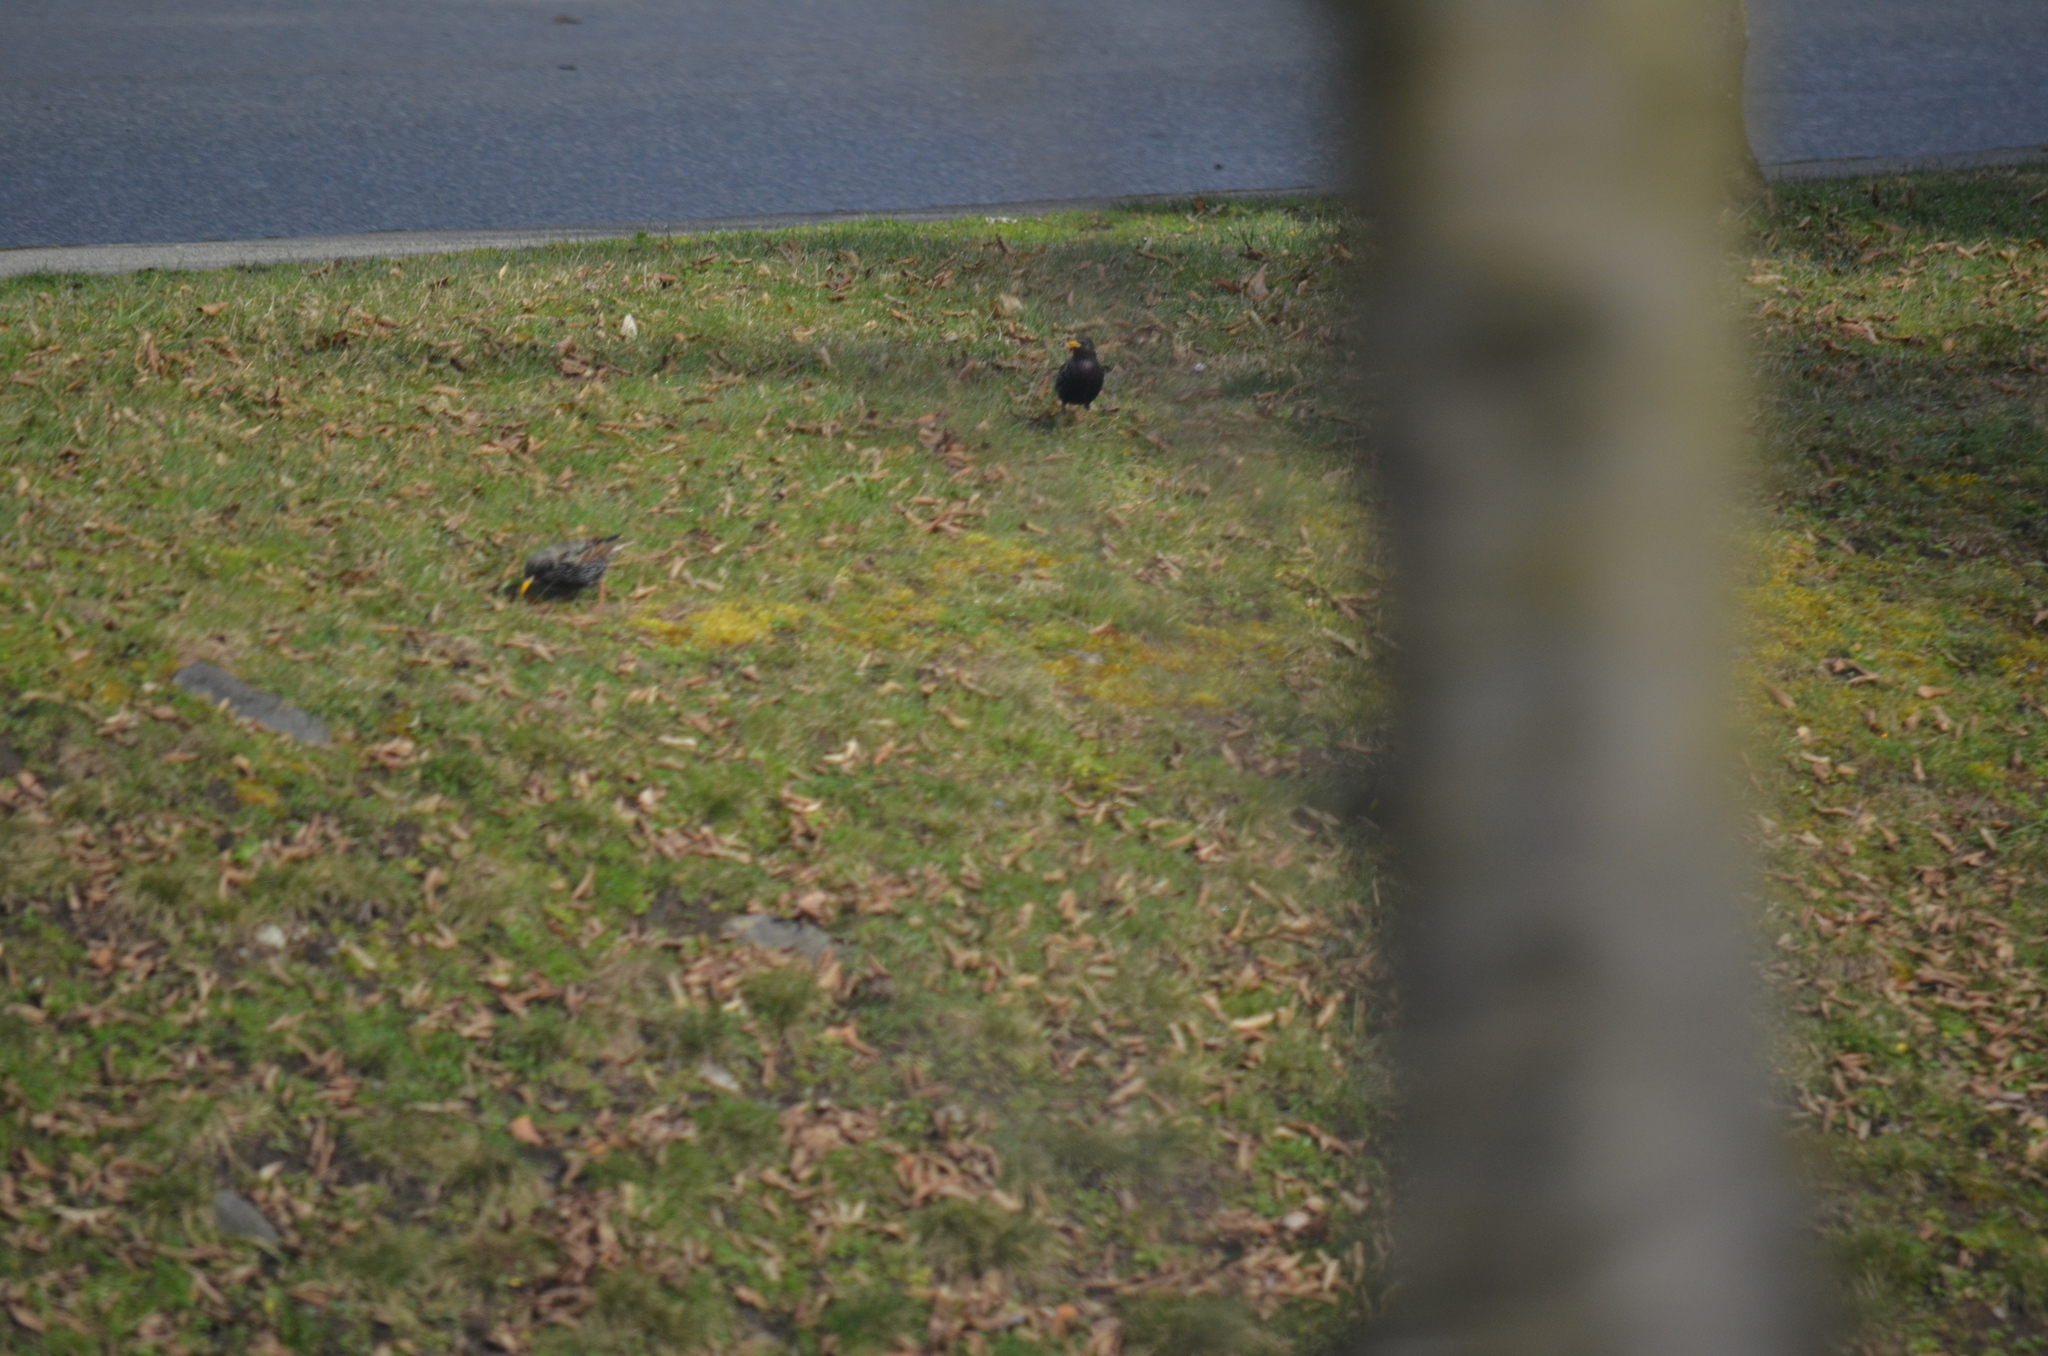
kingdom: Animalia
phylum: Chordata
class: Aves
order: Passeriformes
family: Sturnidae
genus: Sturnus
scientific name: Sturnus vulgaris
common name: Common starling
